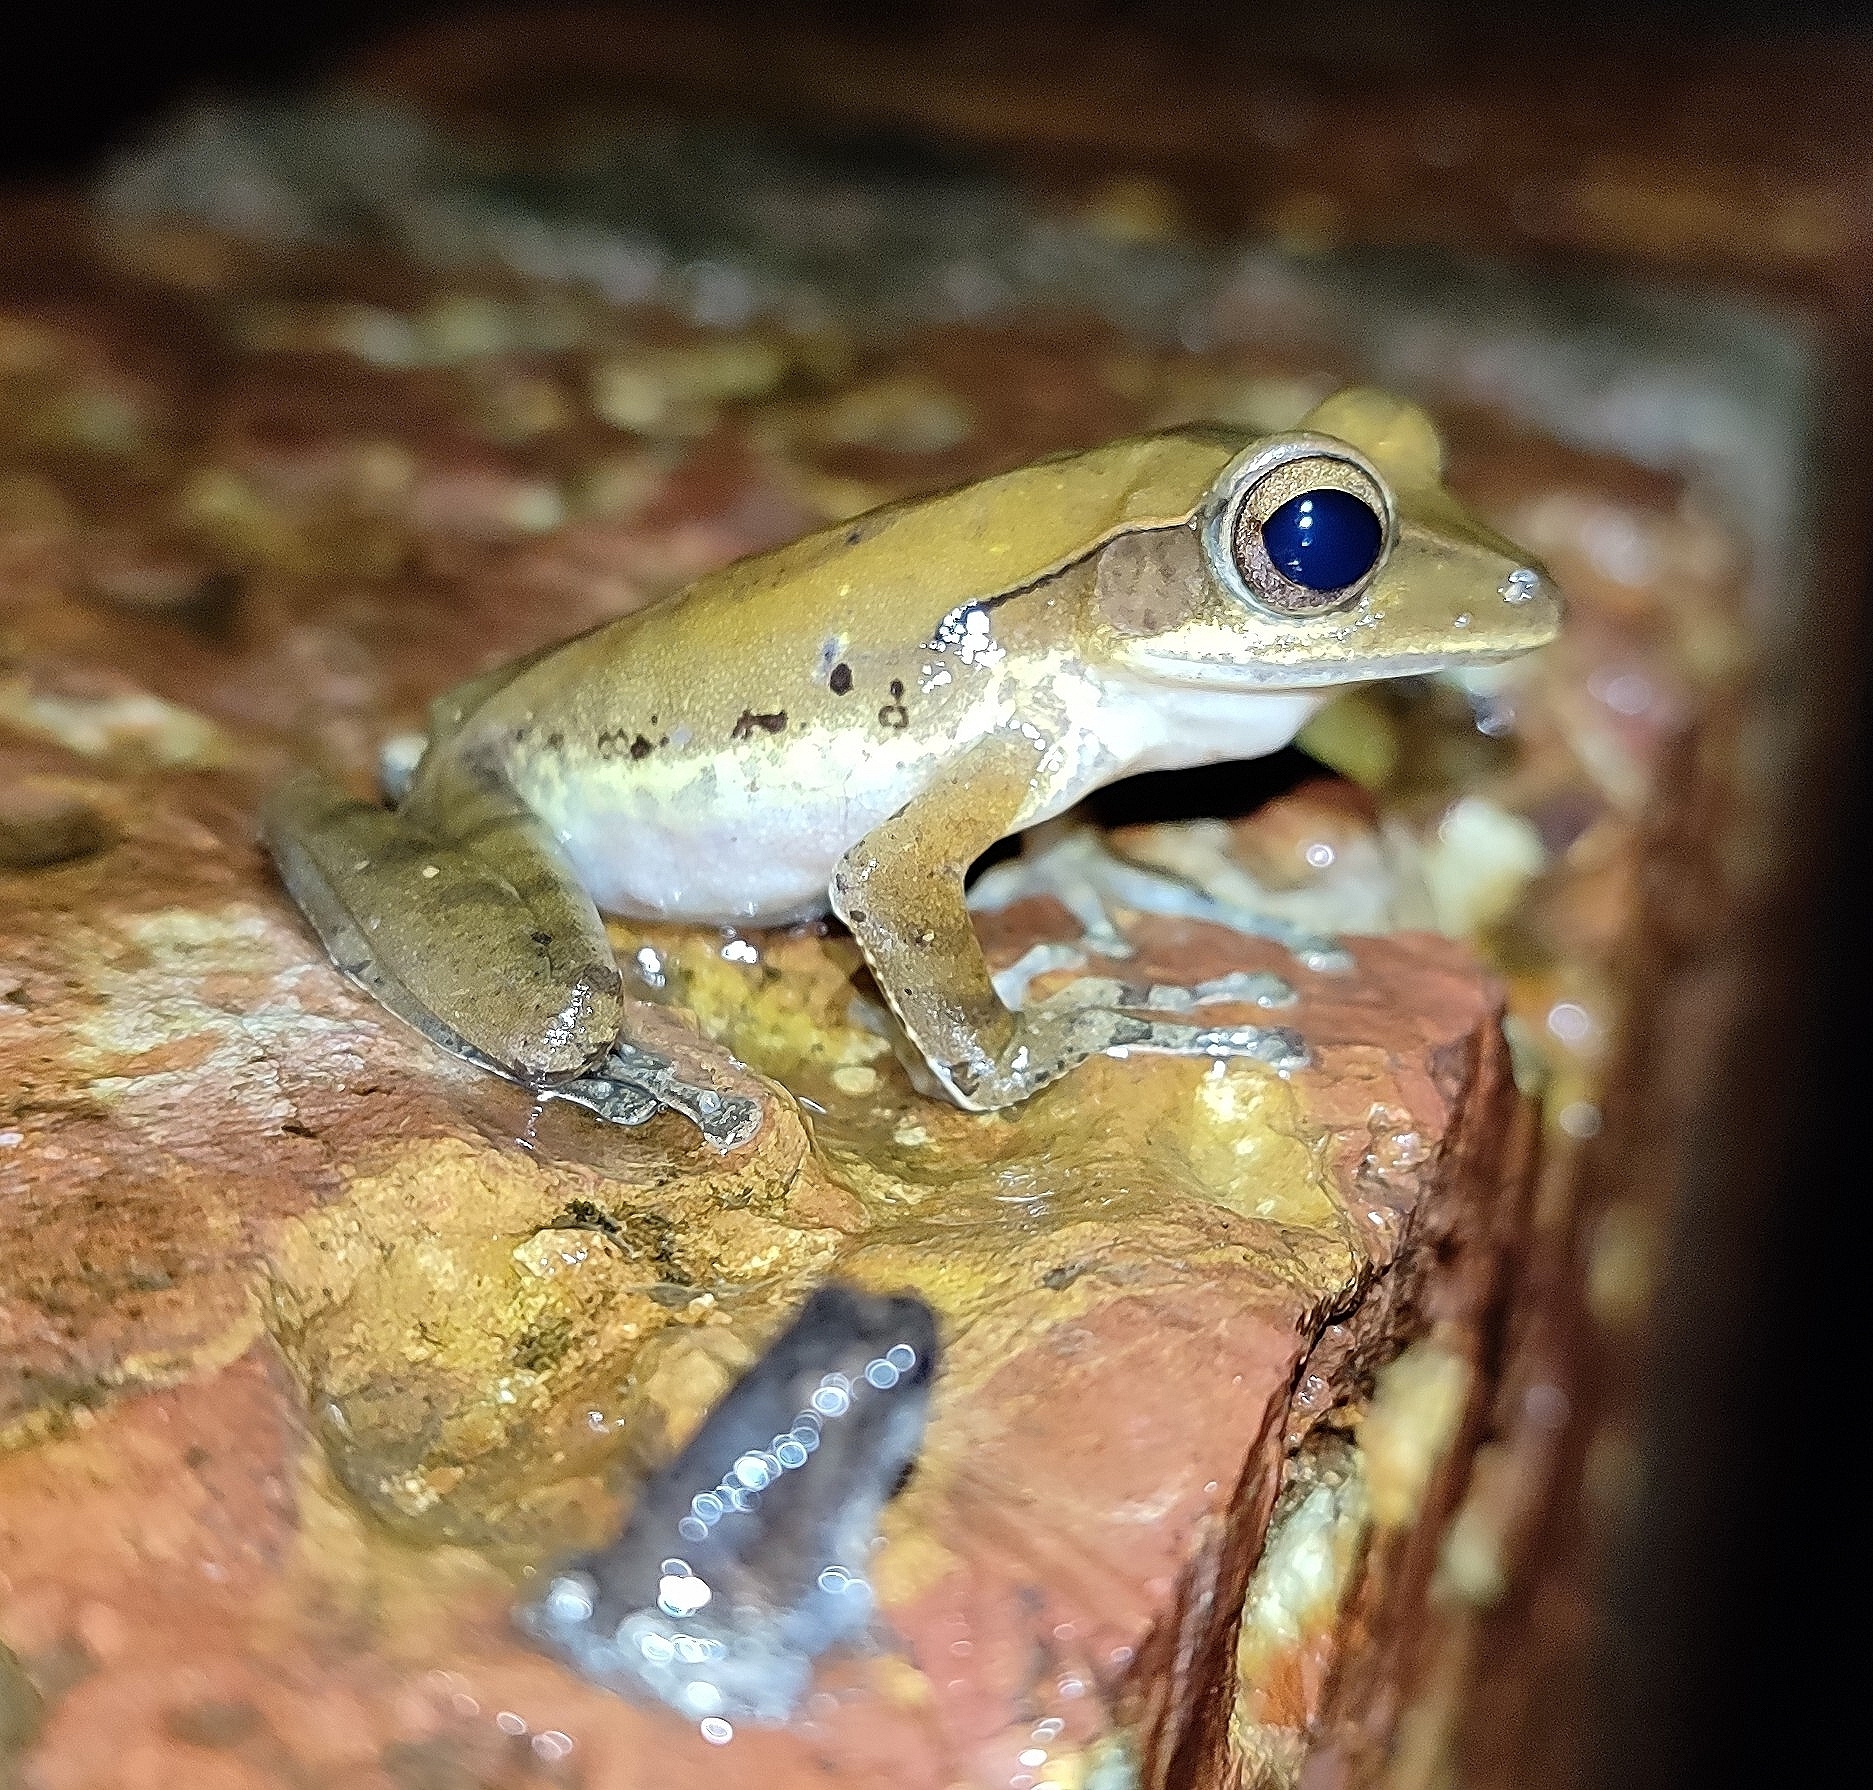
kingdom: Animalia
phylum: Chordata
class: Amphibia
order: Anura
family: Rhacophoridae
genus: Polypedates
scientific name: Polypedates maculatus
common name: Himalayan tree frog
